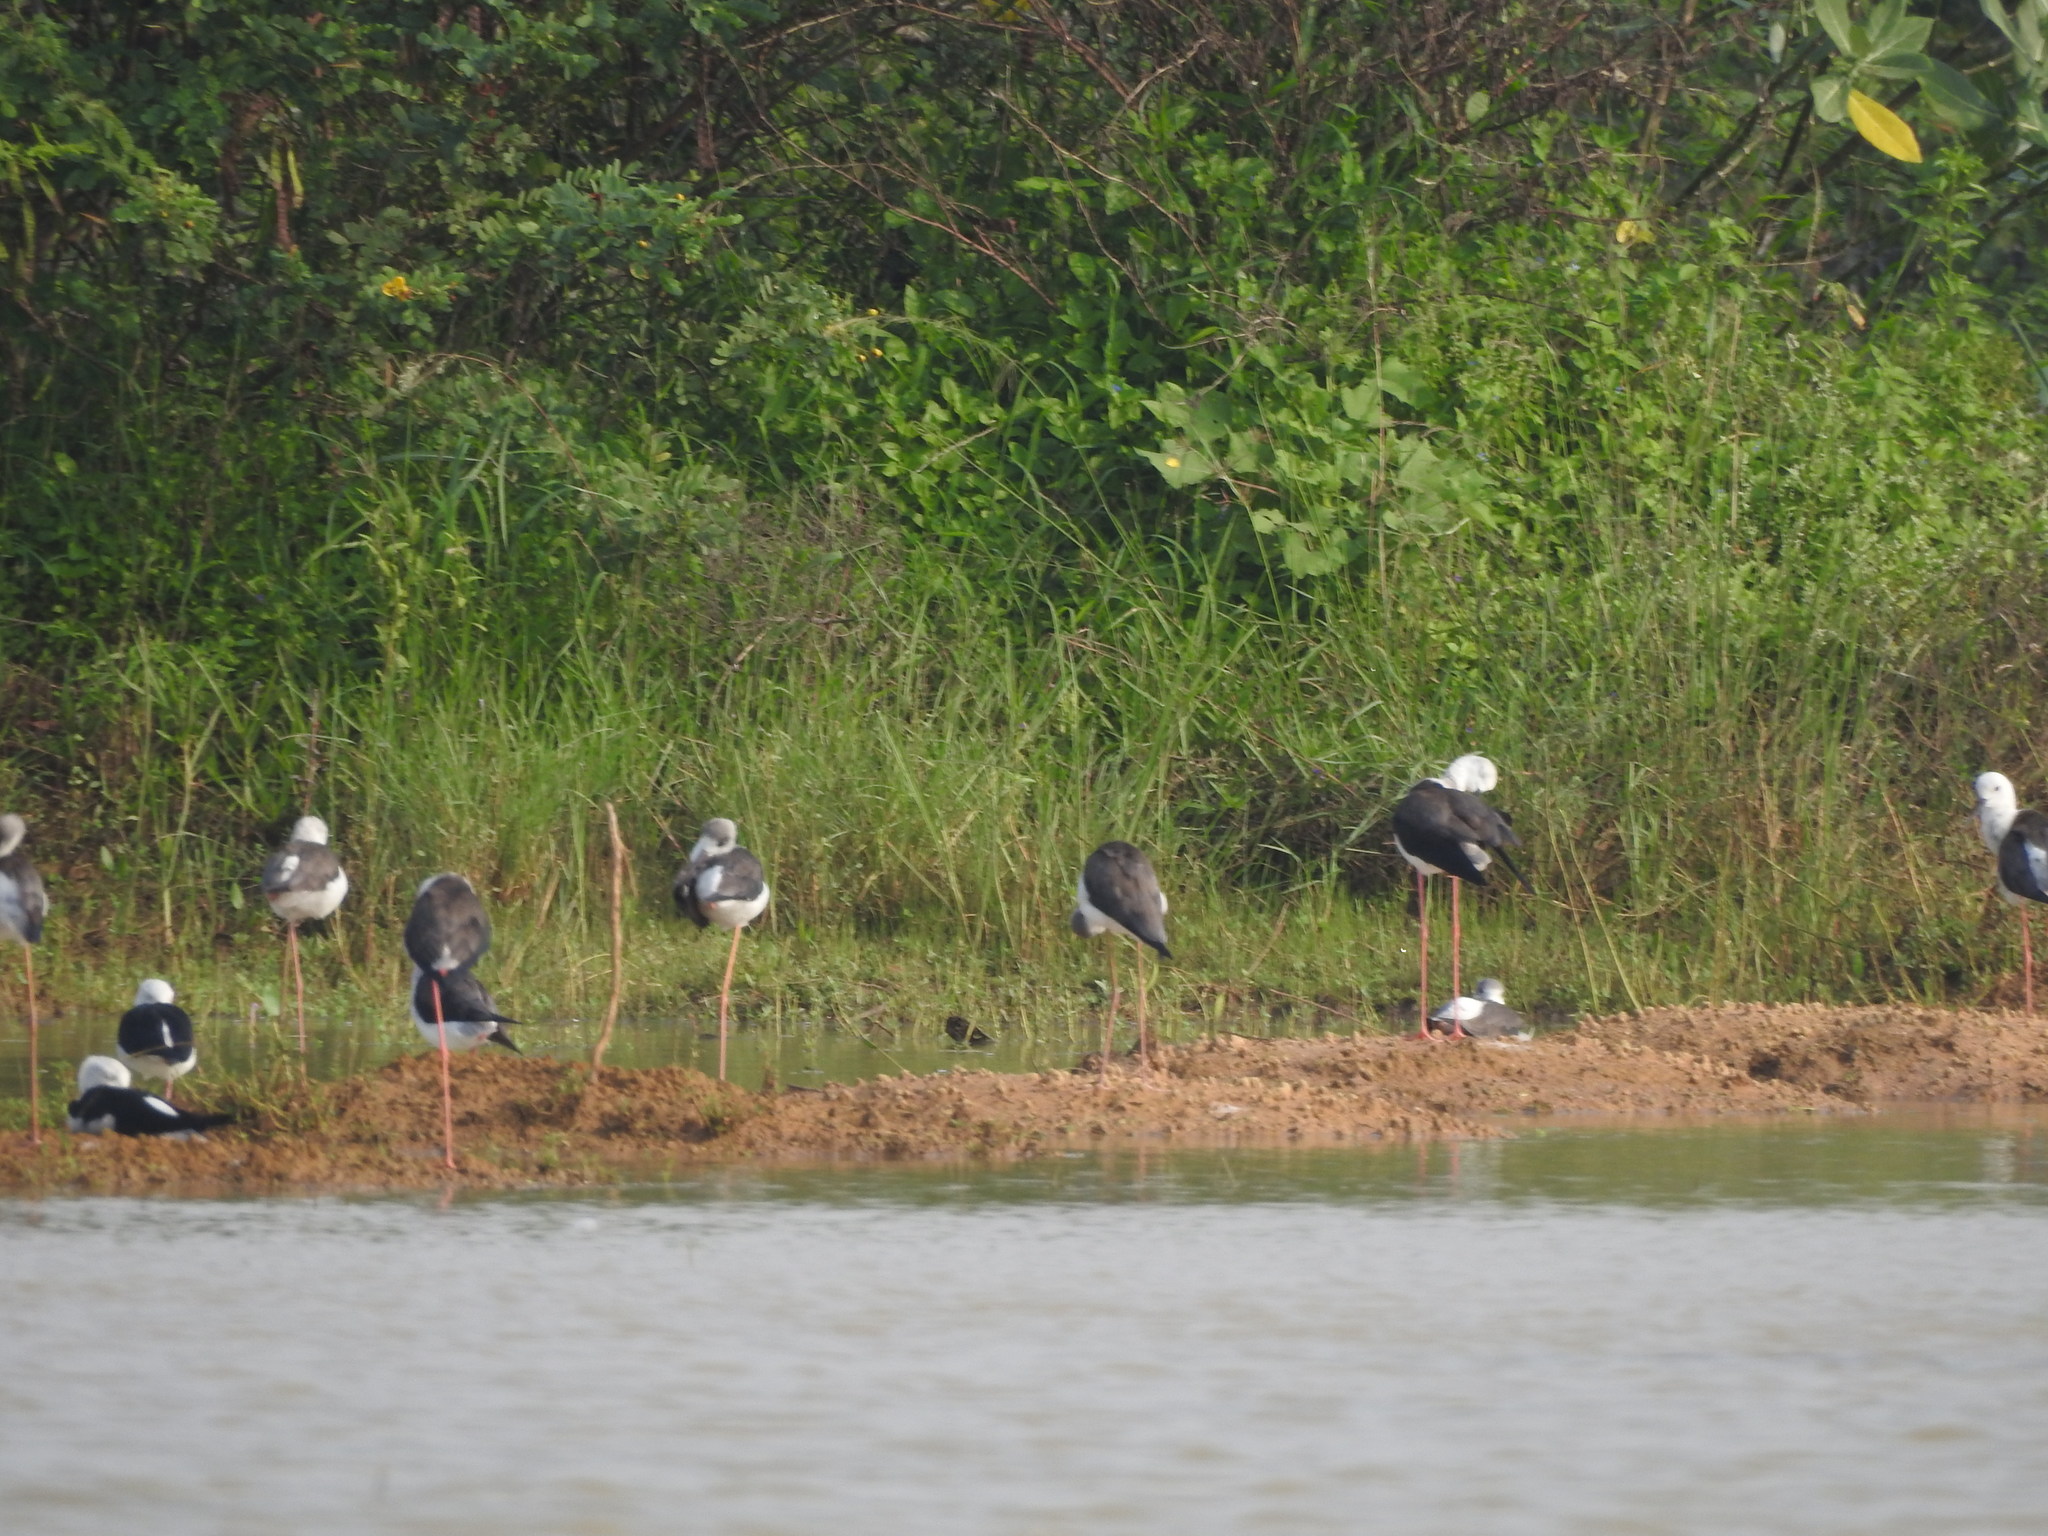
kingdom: Animalia
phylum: Chordata
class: Aves
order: Charadriiformes
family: Recurvirostridae
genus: Himantopus
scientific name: Himantopus himantopus
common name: Black-winged stilt
